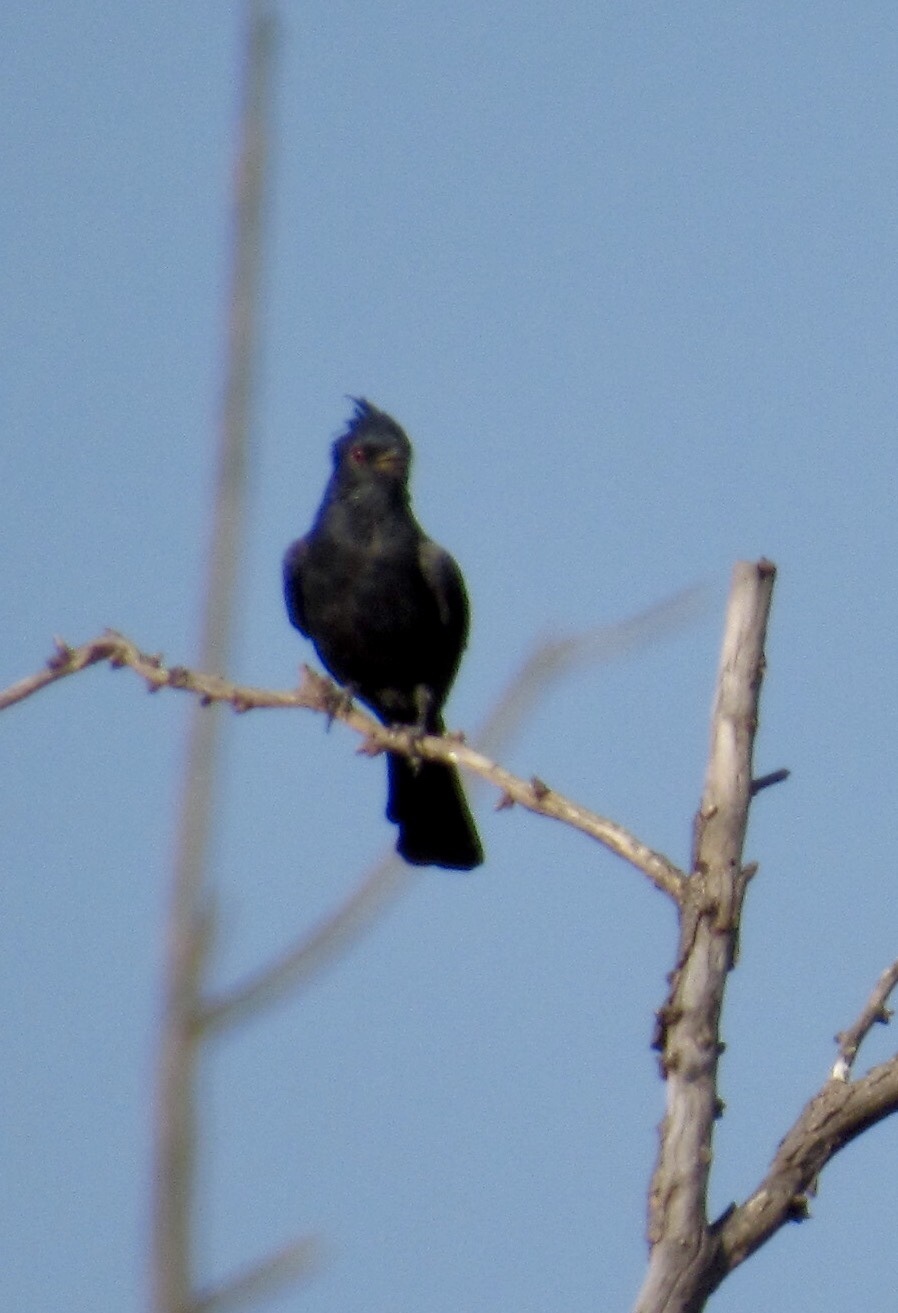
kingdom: Animalia
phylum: Chordata
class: Aves
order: Passeriformes
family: Ptilogonatidae
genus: Phainopepla
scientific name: Phainopepla nitens
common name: Phainopepla
